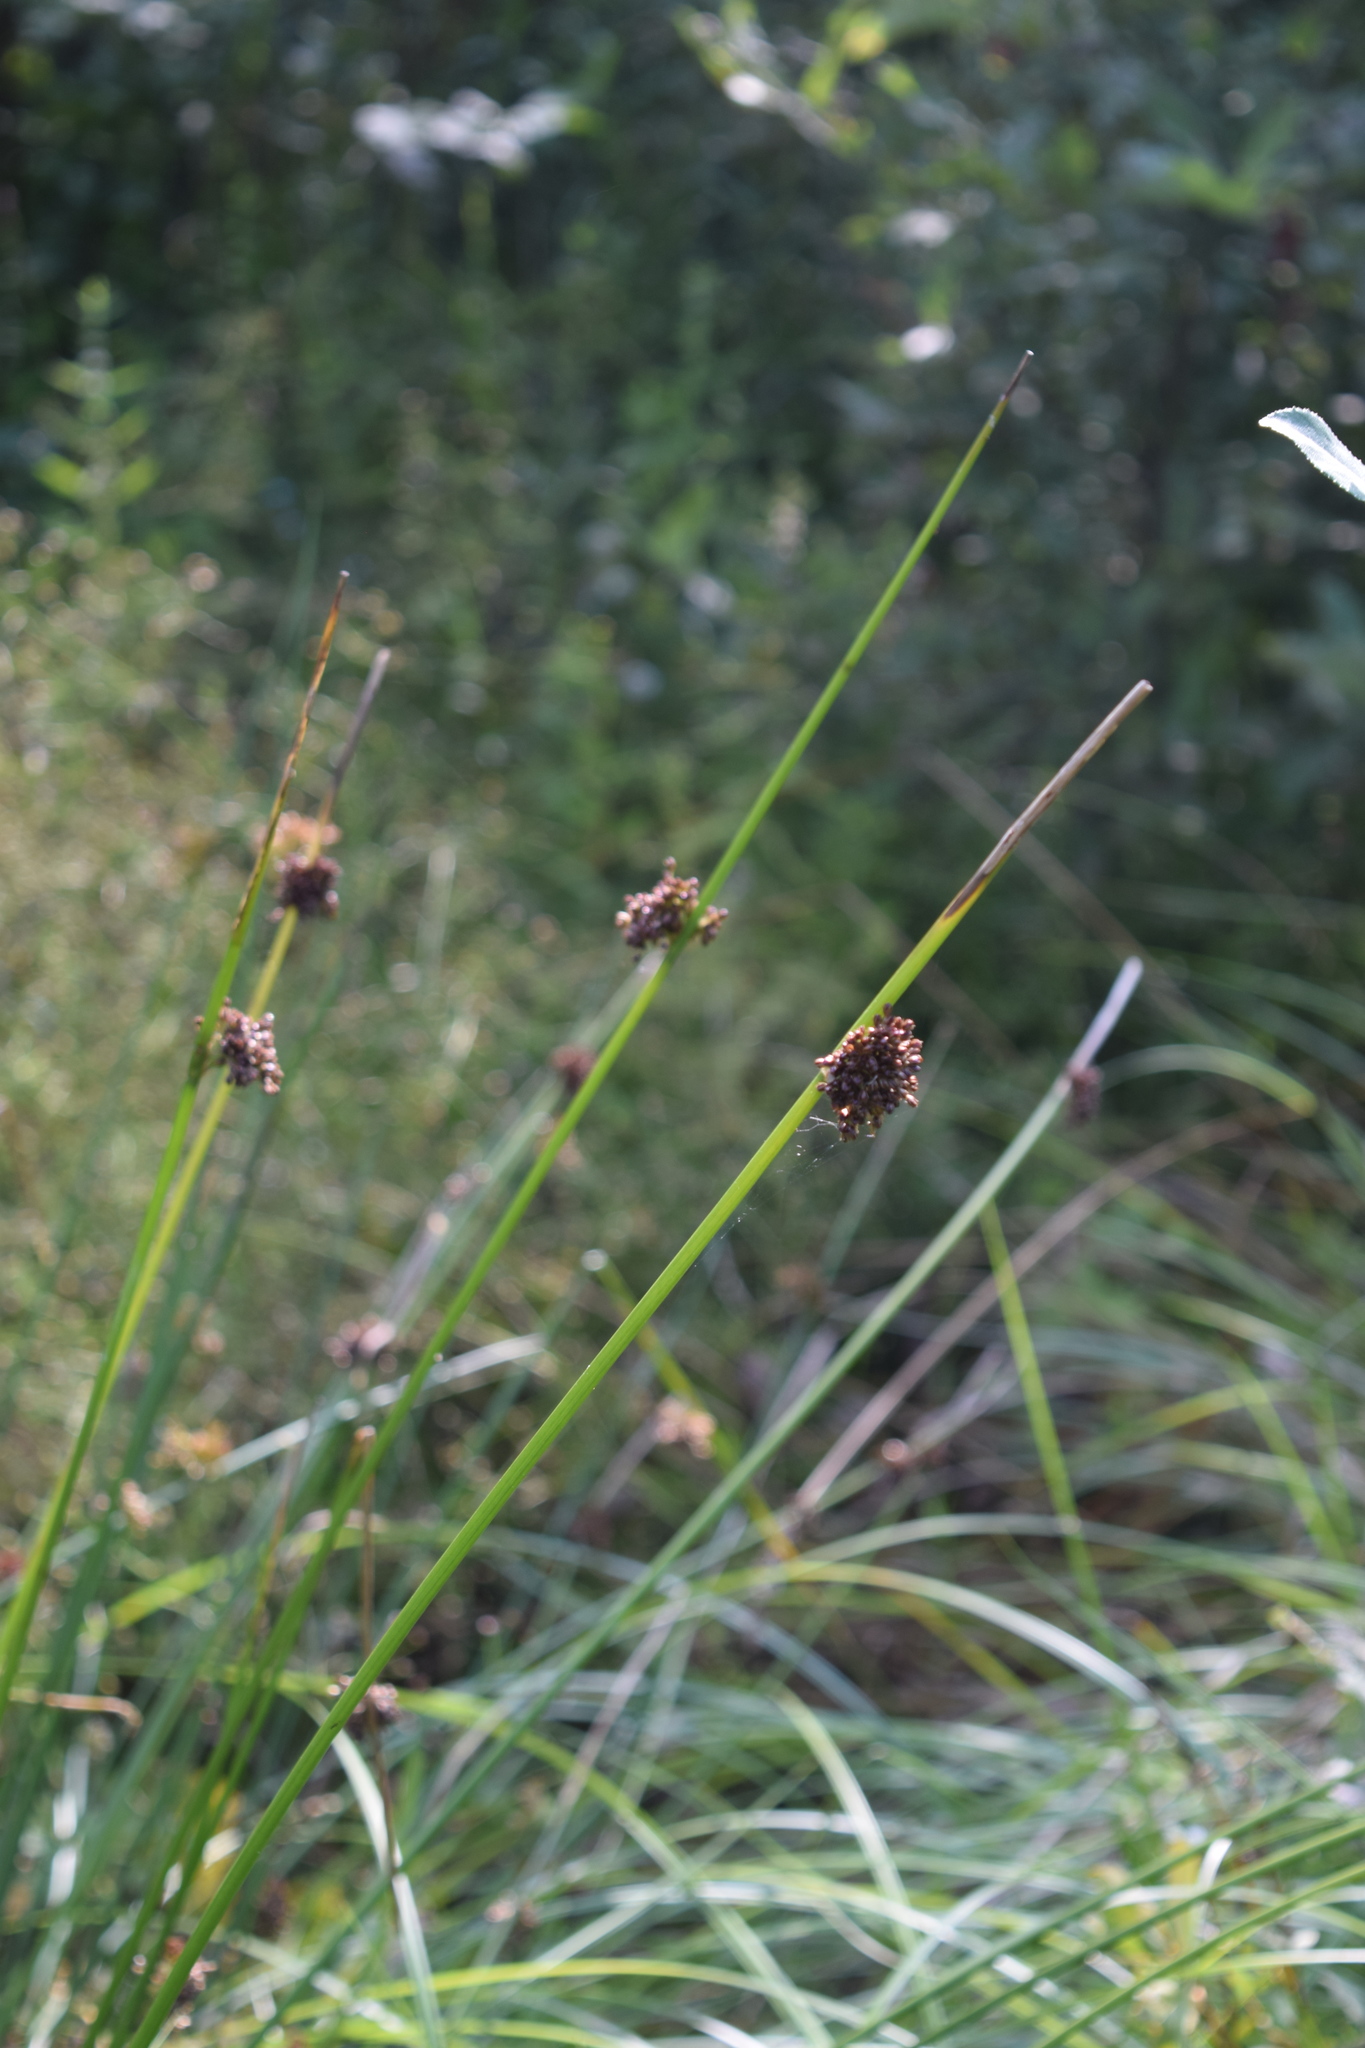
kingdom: Plantae
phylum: Tracheophyta
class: Liliopsida
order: Poales
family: Juncaceae
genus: Juncus
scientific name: Juncus effusus
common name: Soft rush
